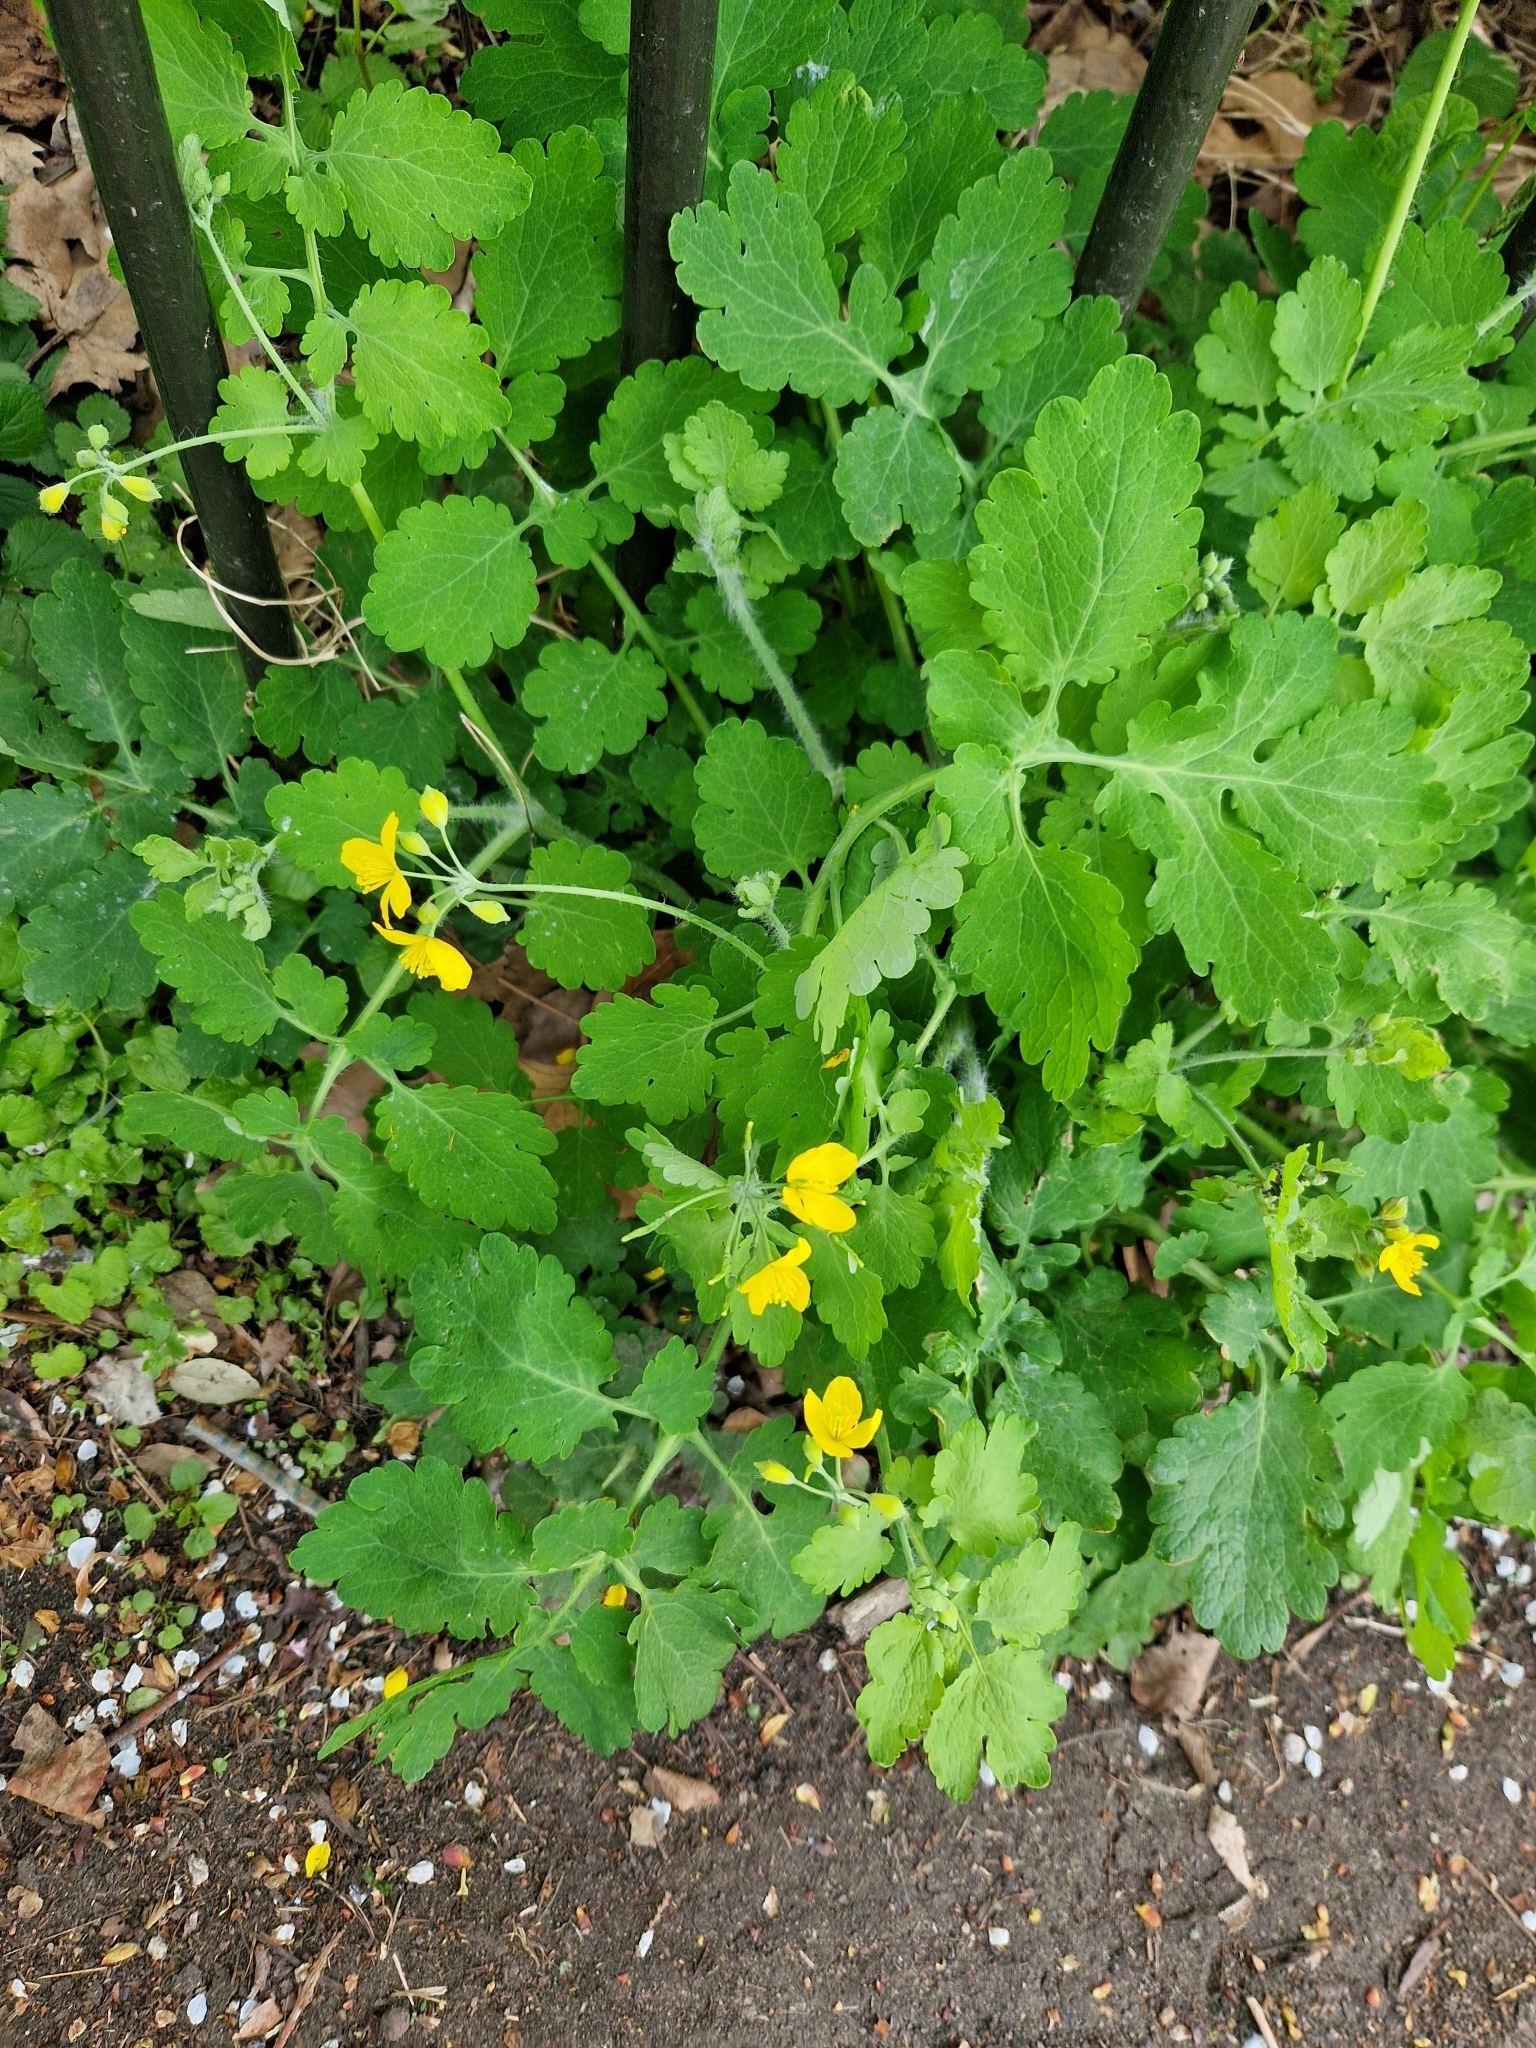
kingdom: Plantae
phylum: Tracheophyta
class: Magnoliopsida
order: Ranunculales
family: Papaveraceae
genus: Chelidonium
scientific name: Chelidonium majus
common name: Greater celandine
